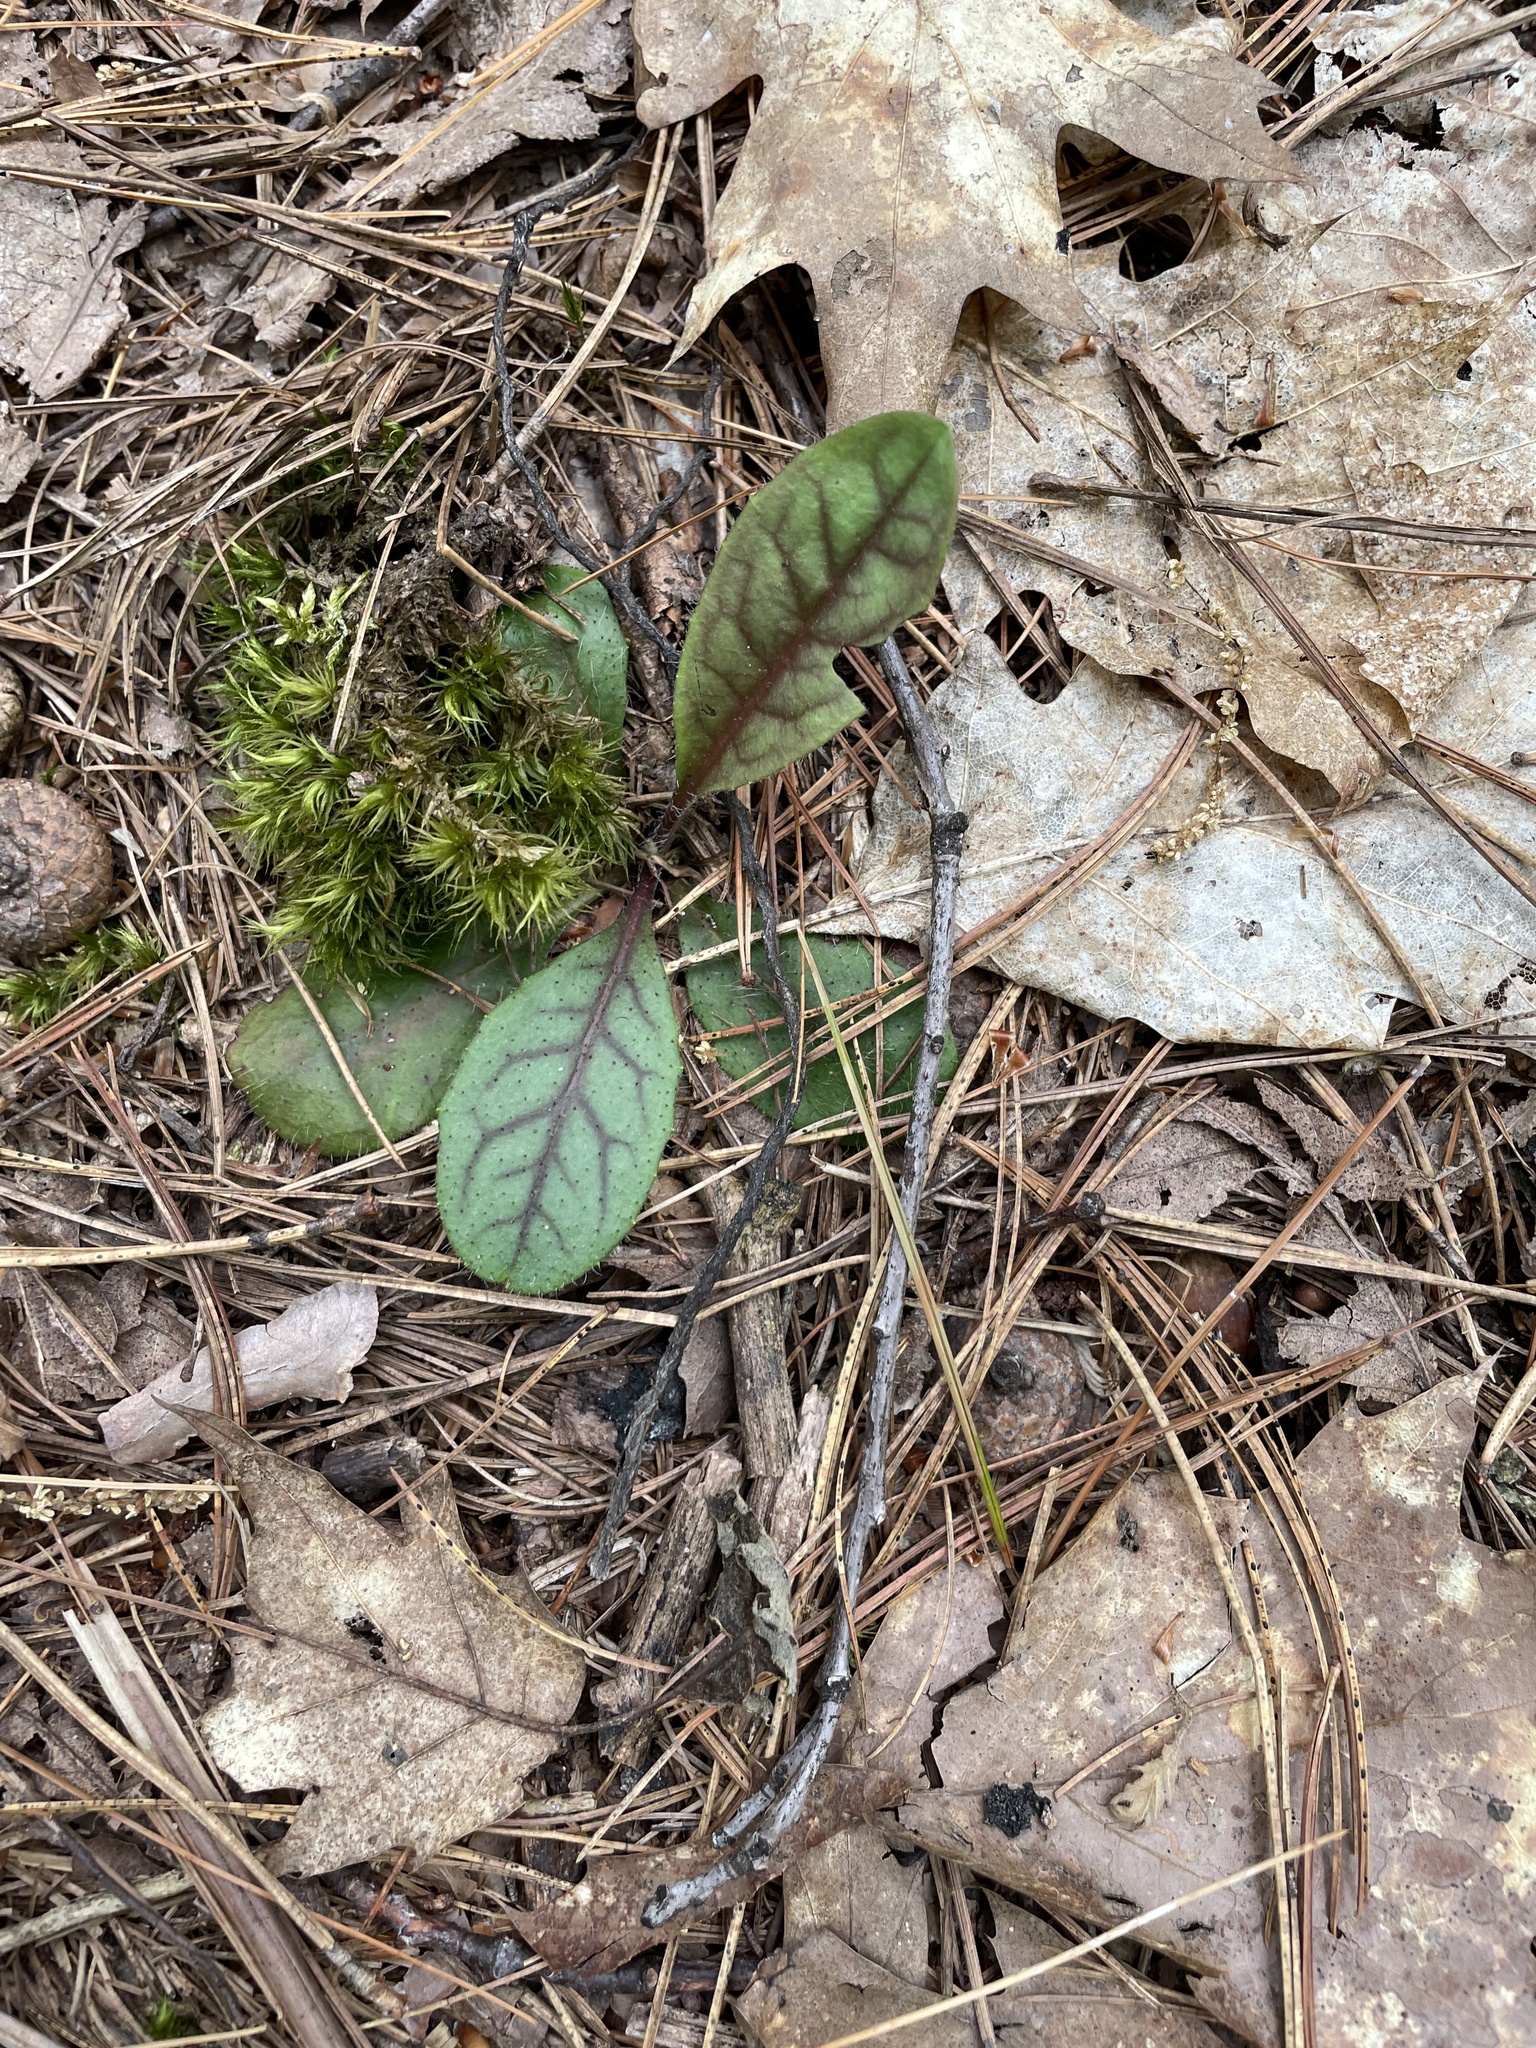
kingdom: Plantae
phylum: Tracheophyta
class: Magnoliopsida
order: Asterales
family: Asteraceae
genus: Hieracium
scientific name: Hieracium venosum
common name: Rattlesnake hawkweed
